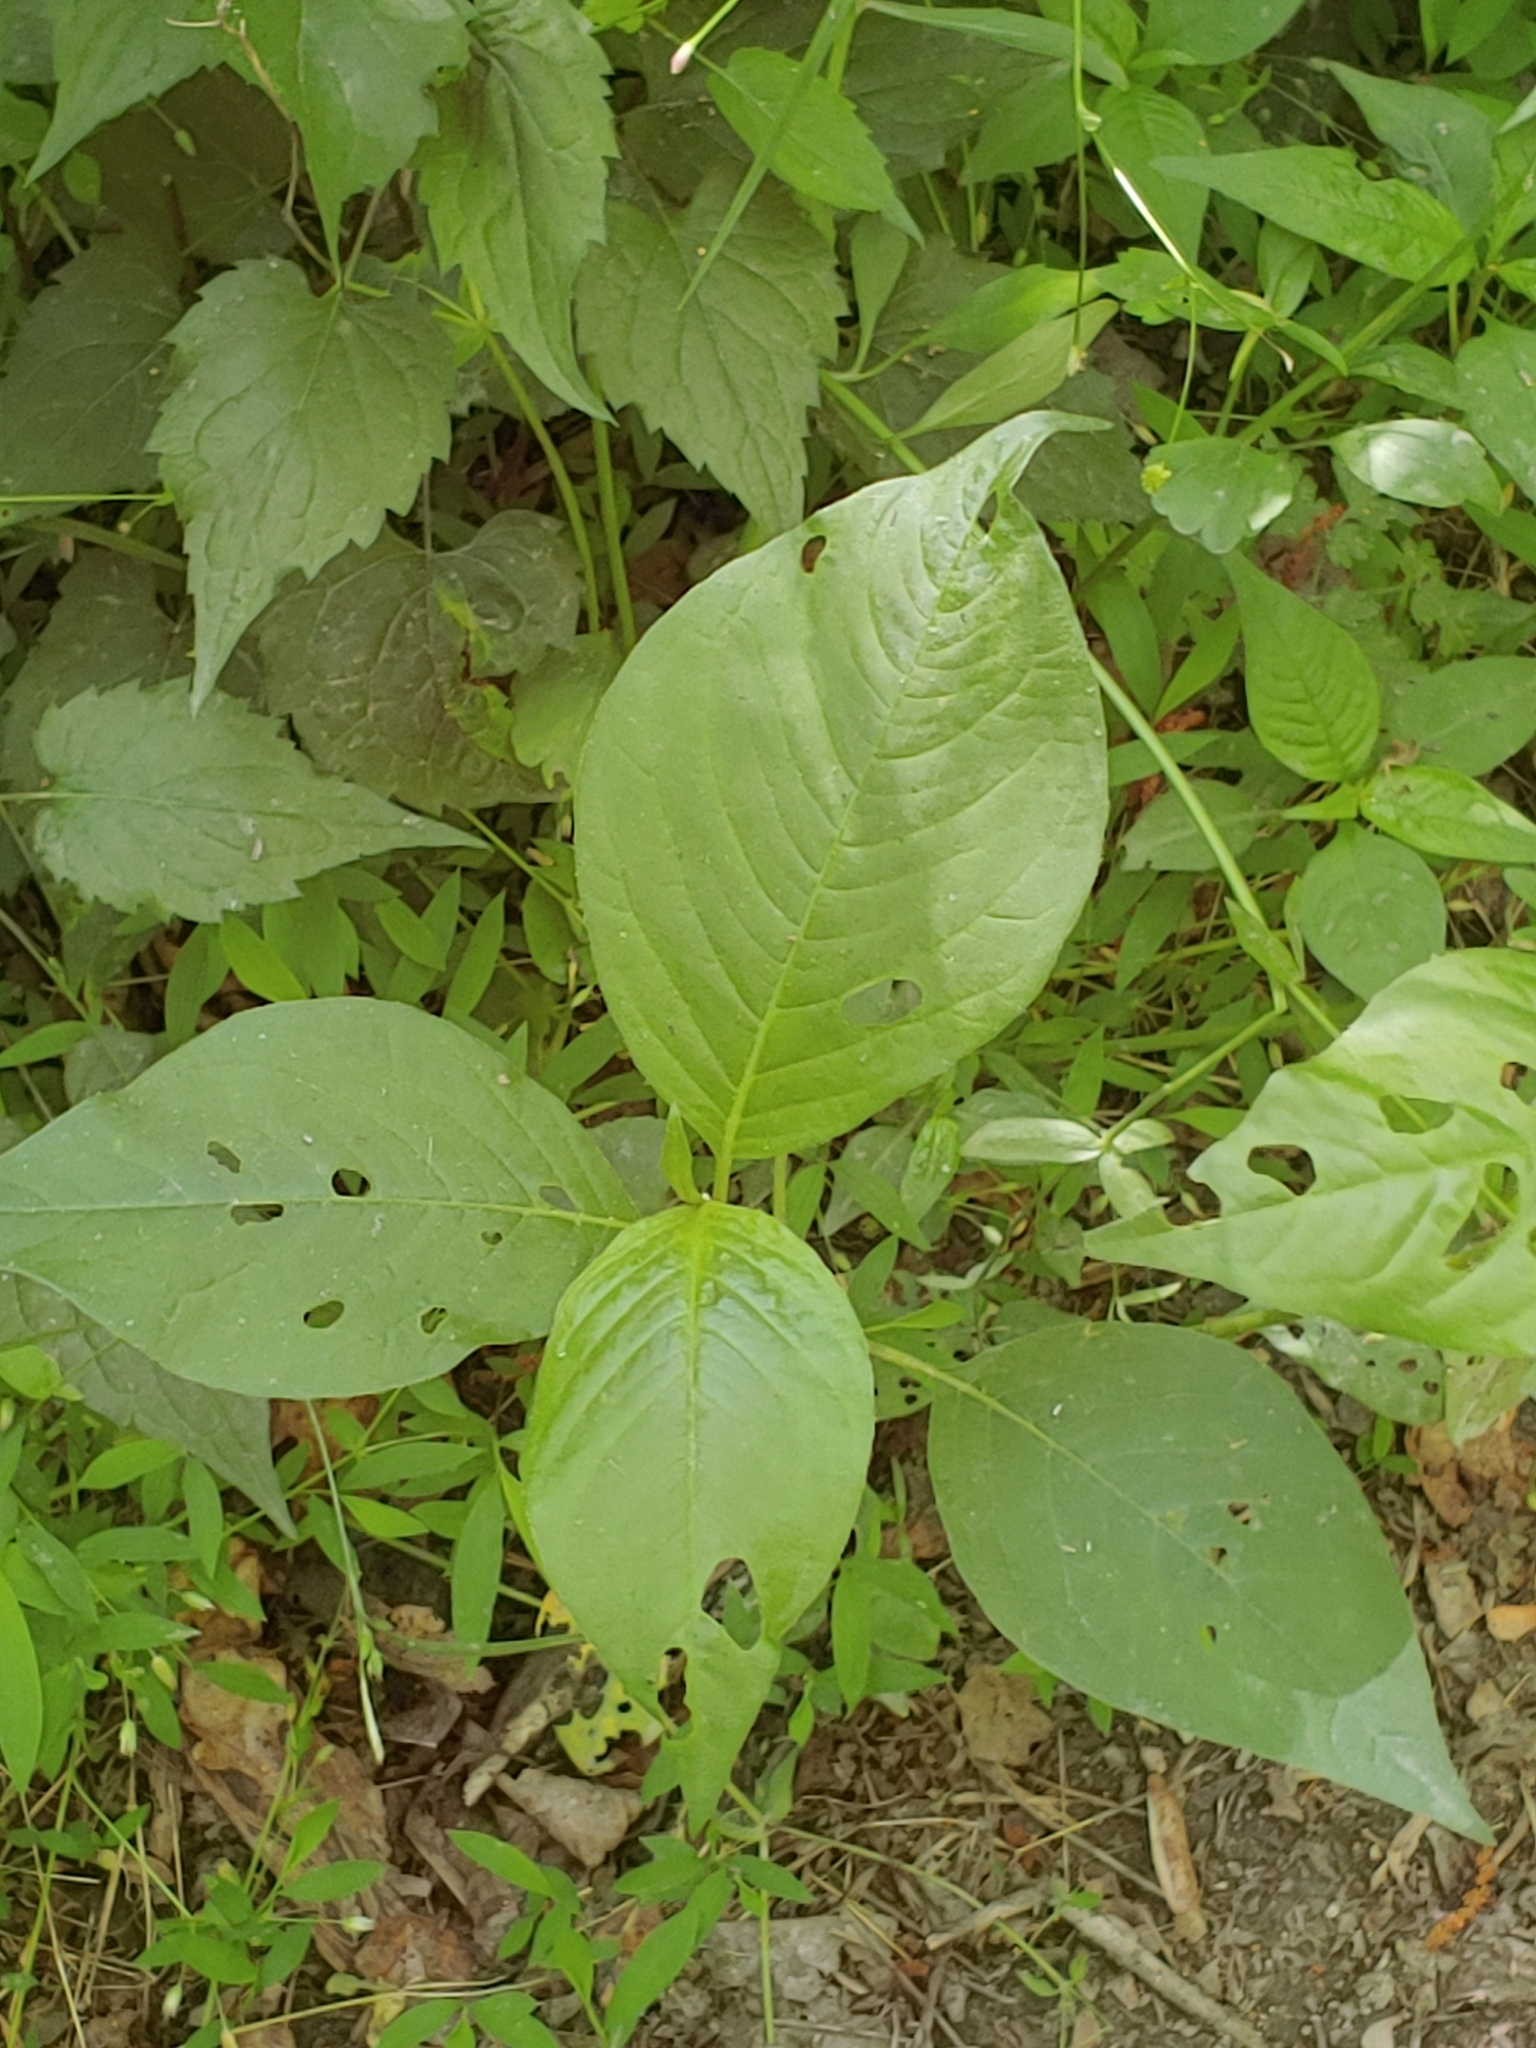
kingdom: Plantae
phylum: Tracheophyta
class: Magnoliopsida
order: Caryophyllales
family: Polygonaceae
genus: Persicaria
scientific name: Persicaria virginiana
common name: Jumpseed
